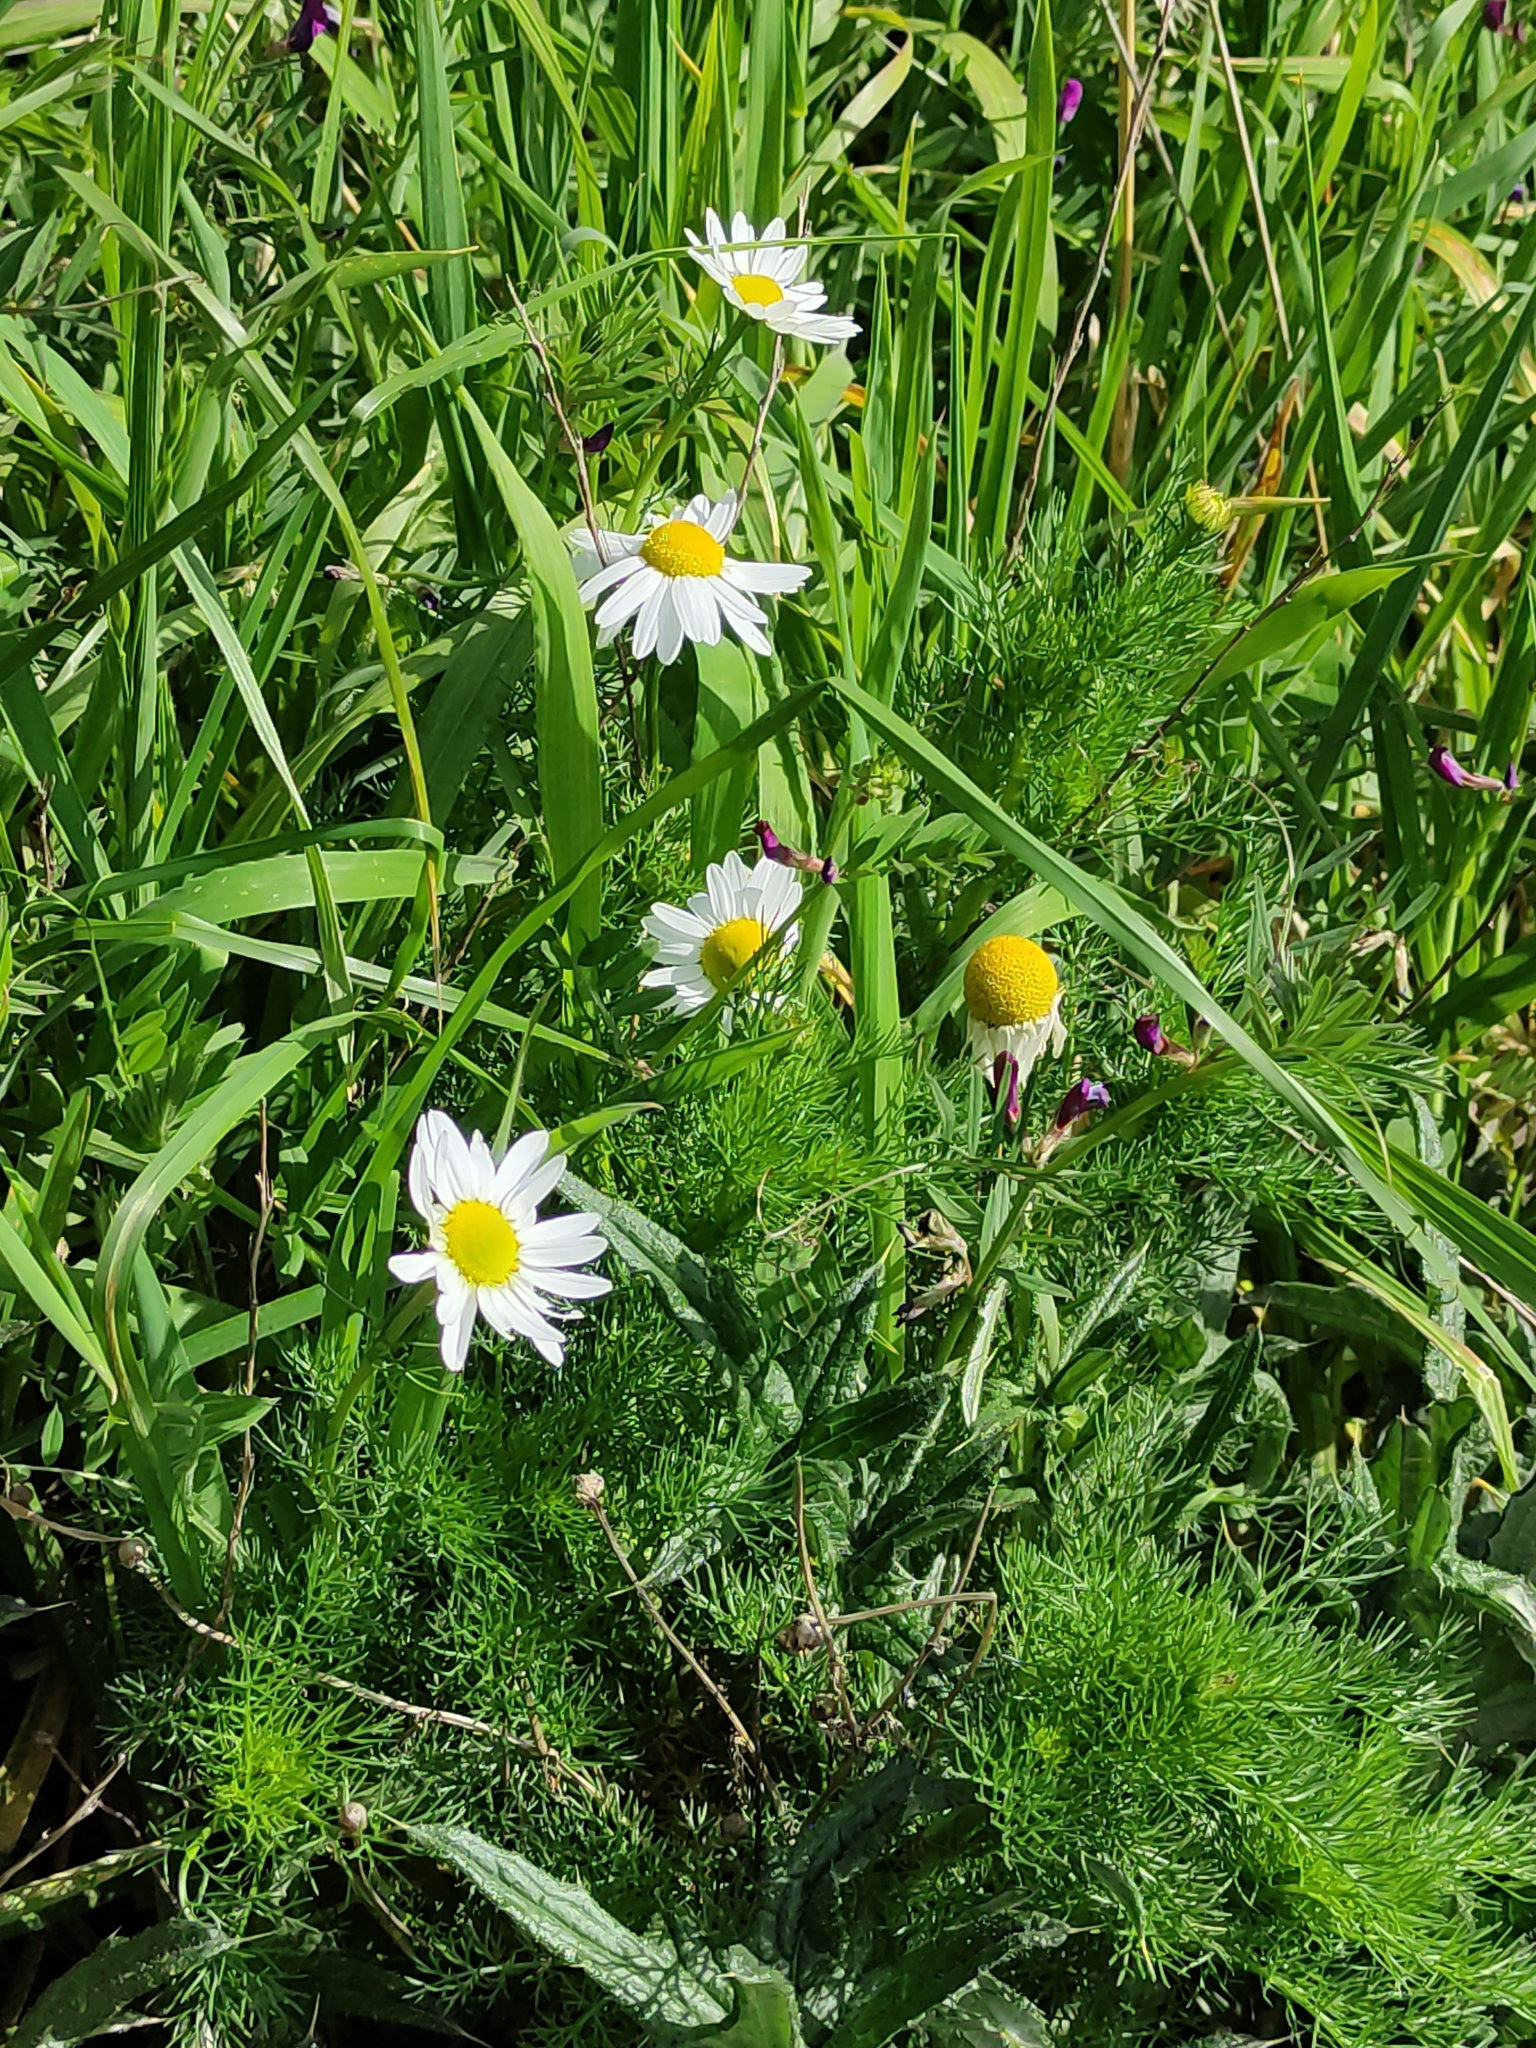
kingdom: Plantae
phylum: Tracheophyta
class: Magnoliopsida
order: Asterales
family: Asteraceae
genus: Tripleurospermum
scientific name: Tripleurospermum inodorum
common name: Scentless mayweed
